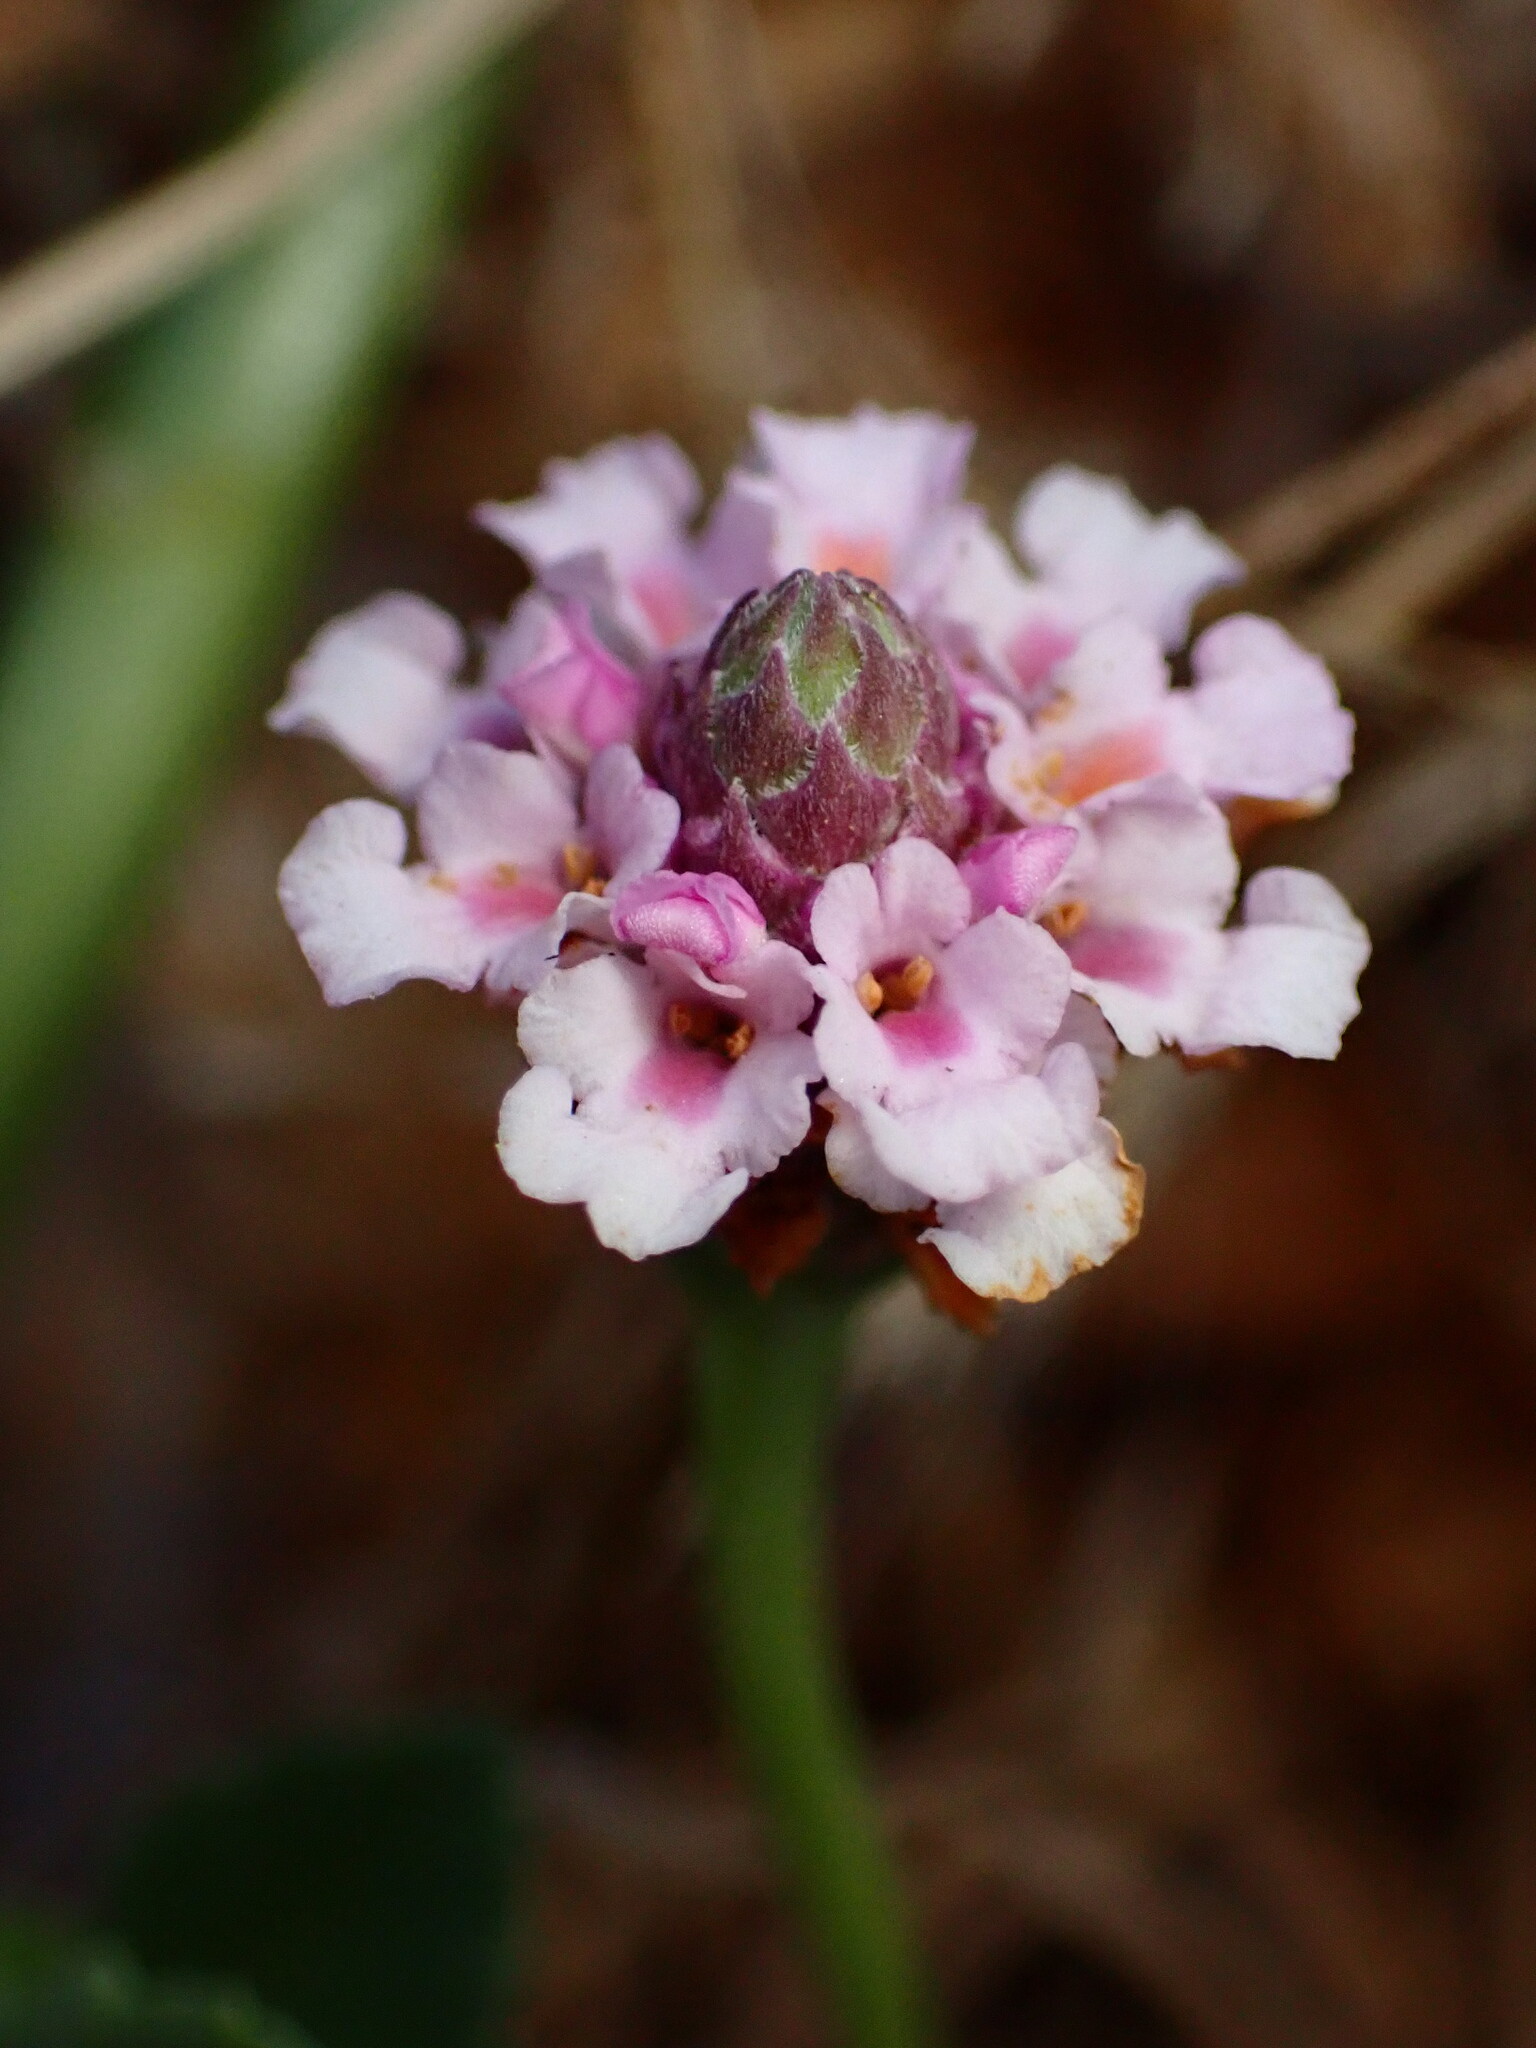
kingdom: Plantae
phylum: Tracheophyta
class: Magnoliopsida
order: Lamiales
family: Verbenaceae
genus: Phyla
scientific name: Phyla nodiflora
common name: Frogfruit
